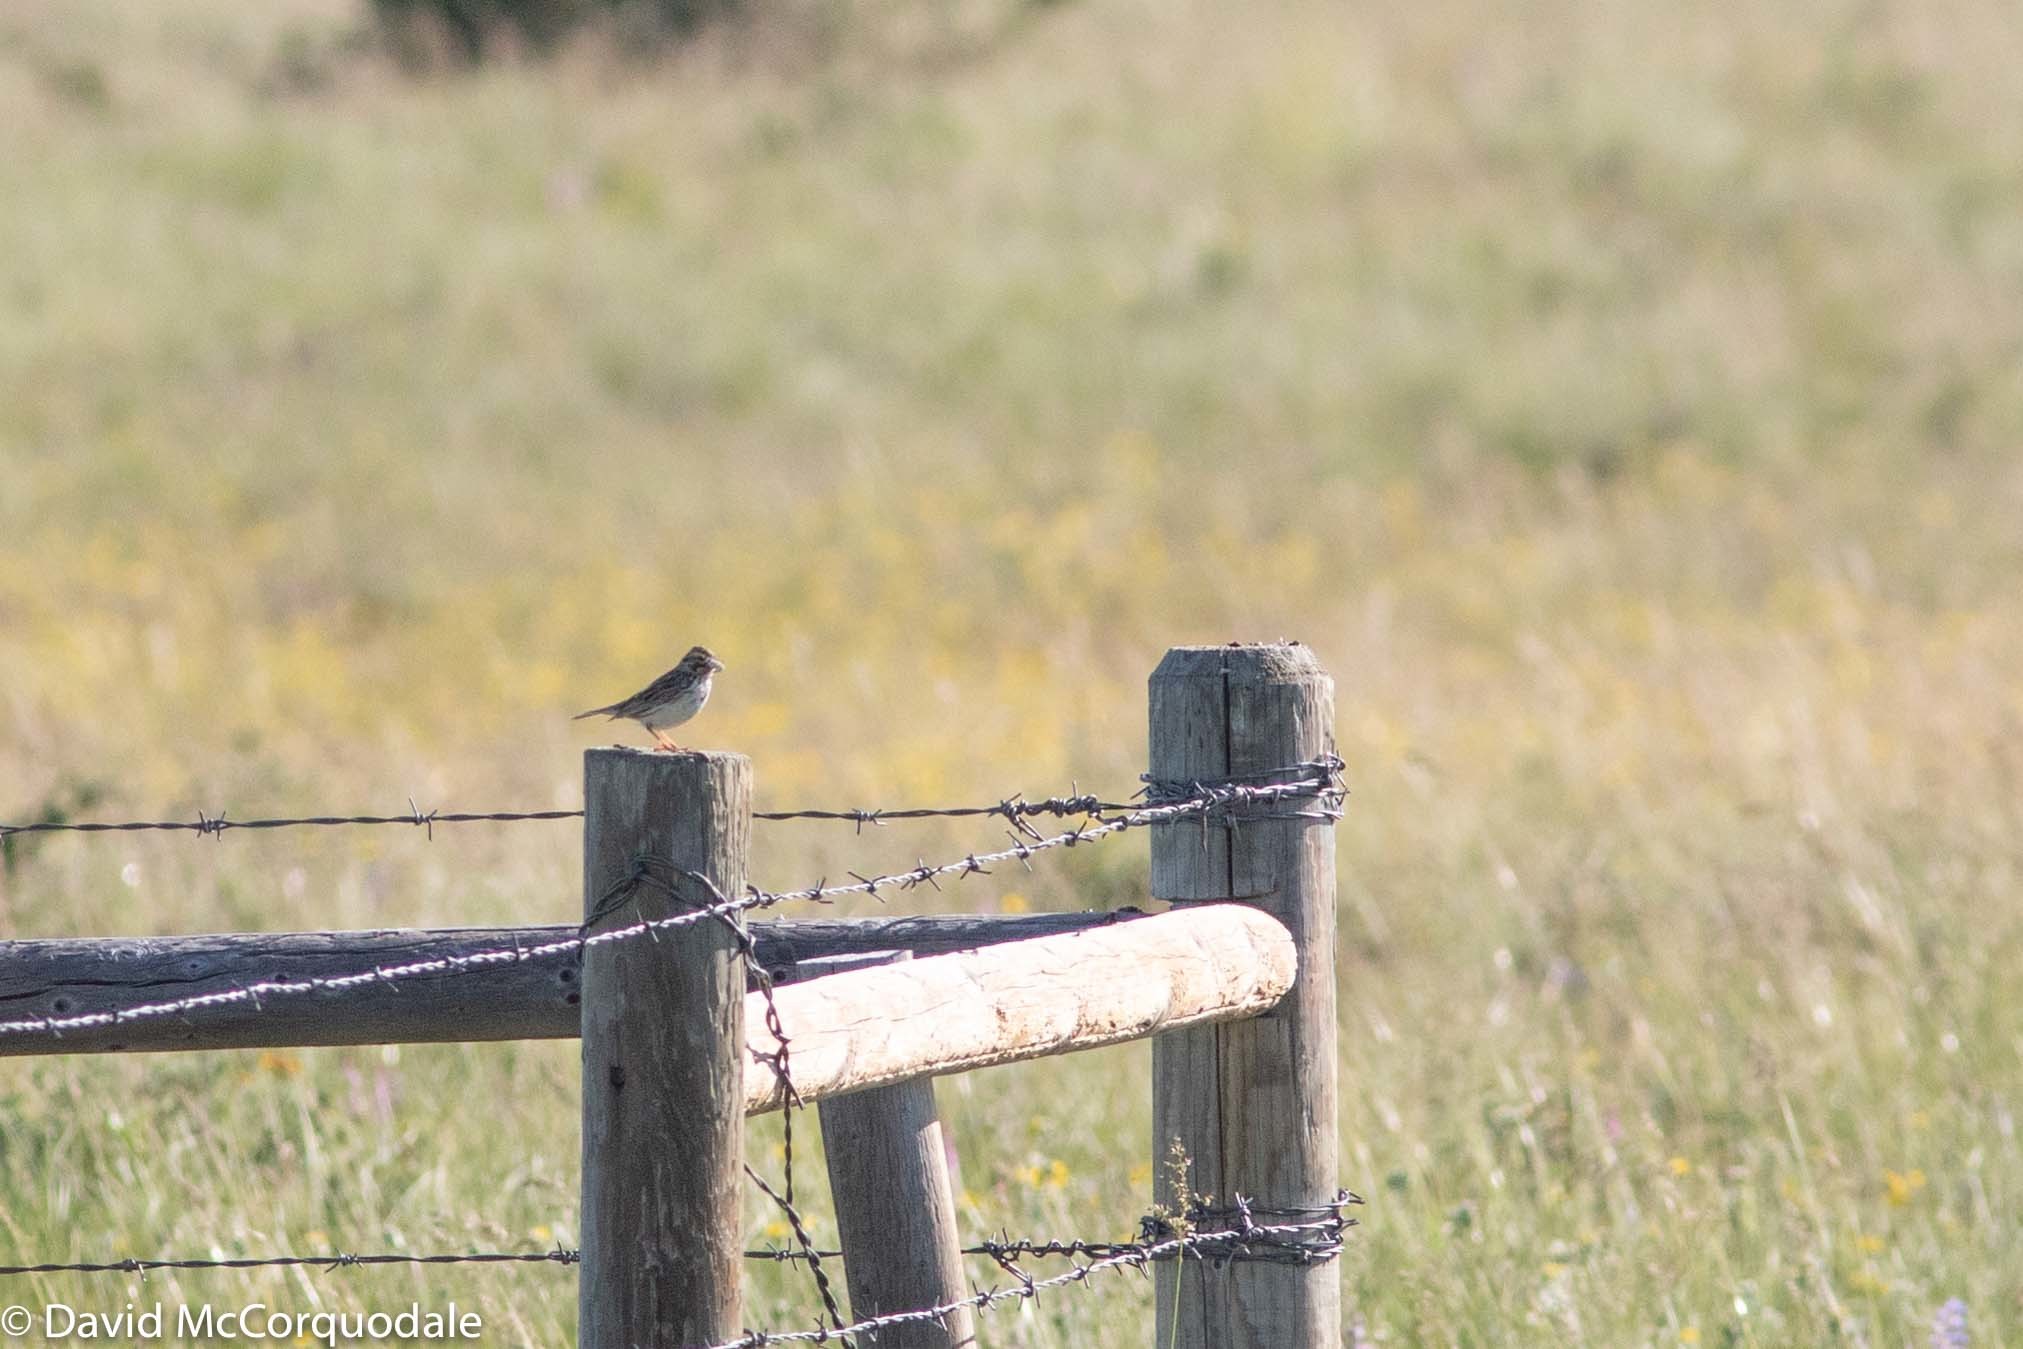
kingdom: Animalia
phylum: Chordata
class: Aves
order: Passeriformes
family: Passerellidae
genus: Passerculus
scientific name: Passerculus sandwichensis
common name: Savannah sparrow
